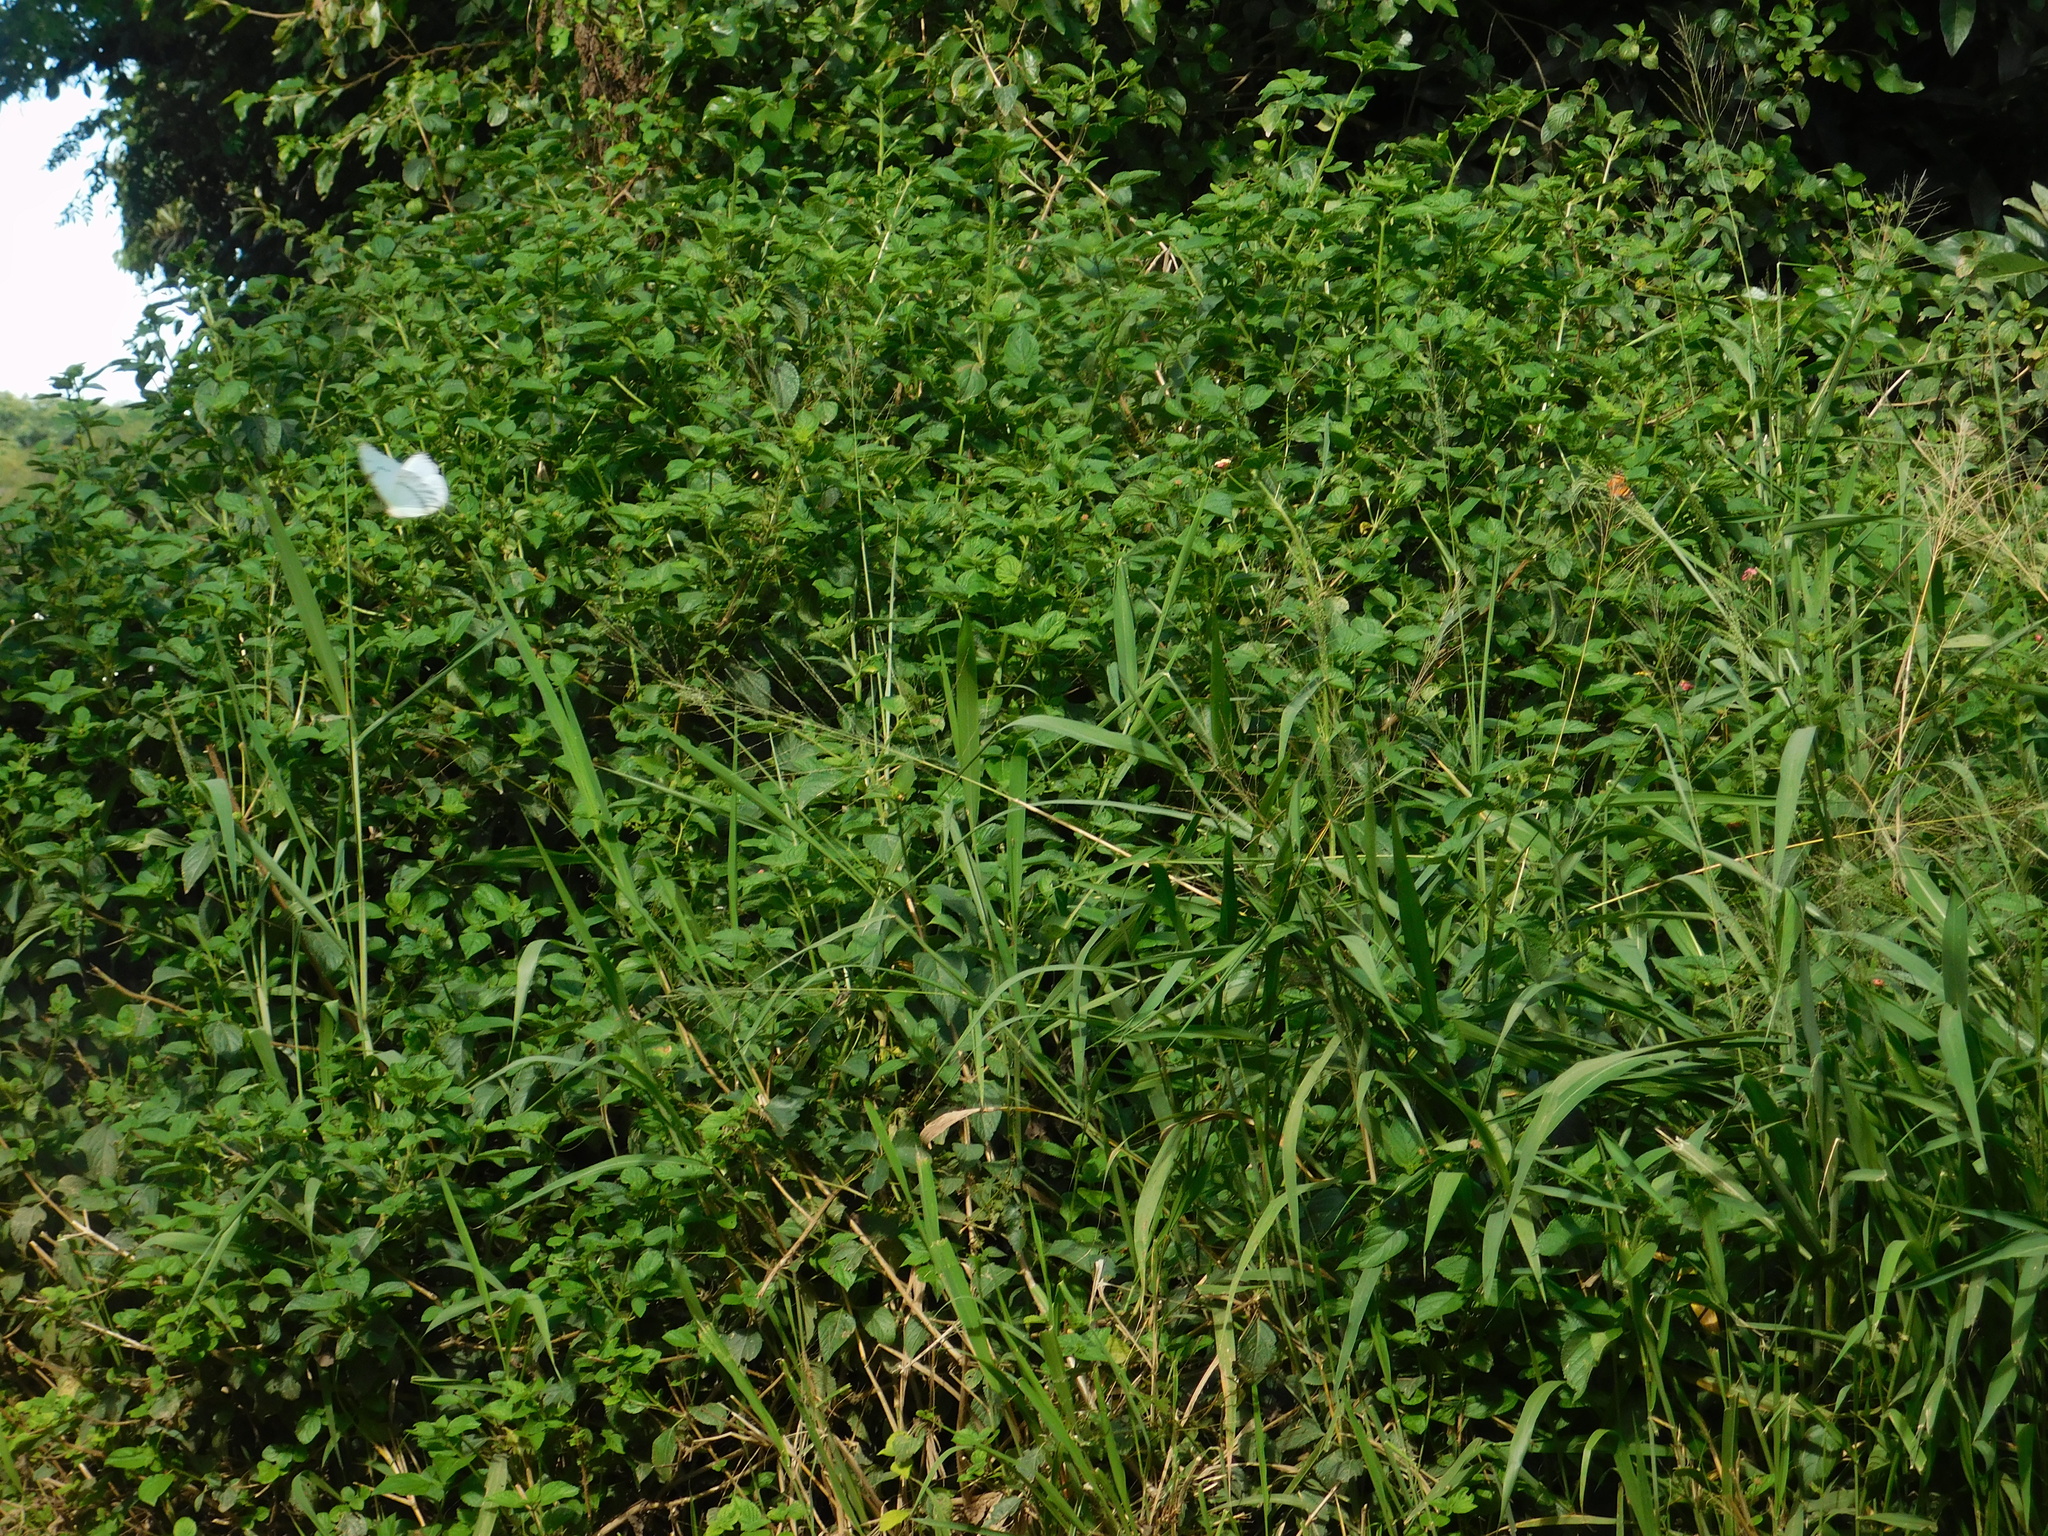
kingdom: Animalia
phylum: Arthropoda
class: Insecta
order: Lepidoptera
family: Nymphalidae
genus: Morpho
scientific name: Morpho epistrophus
